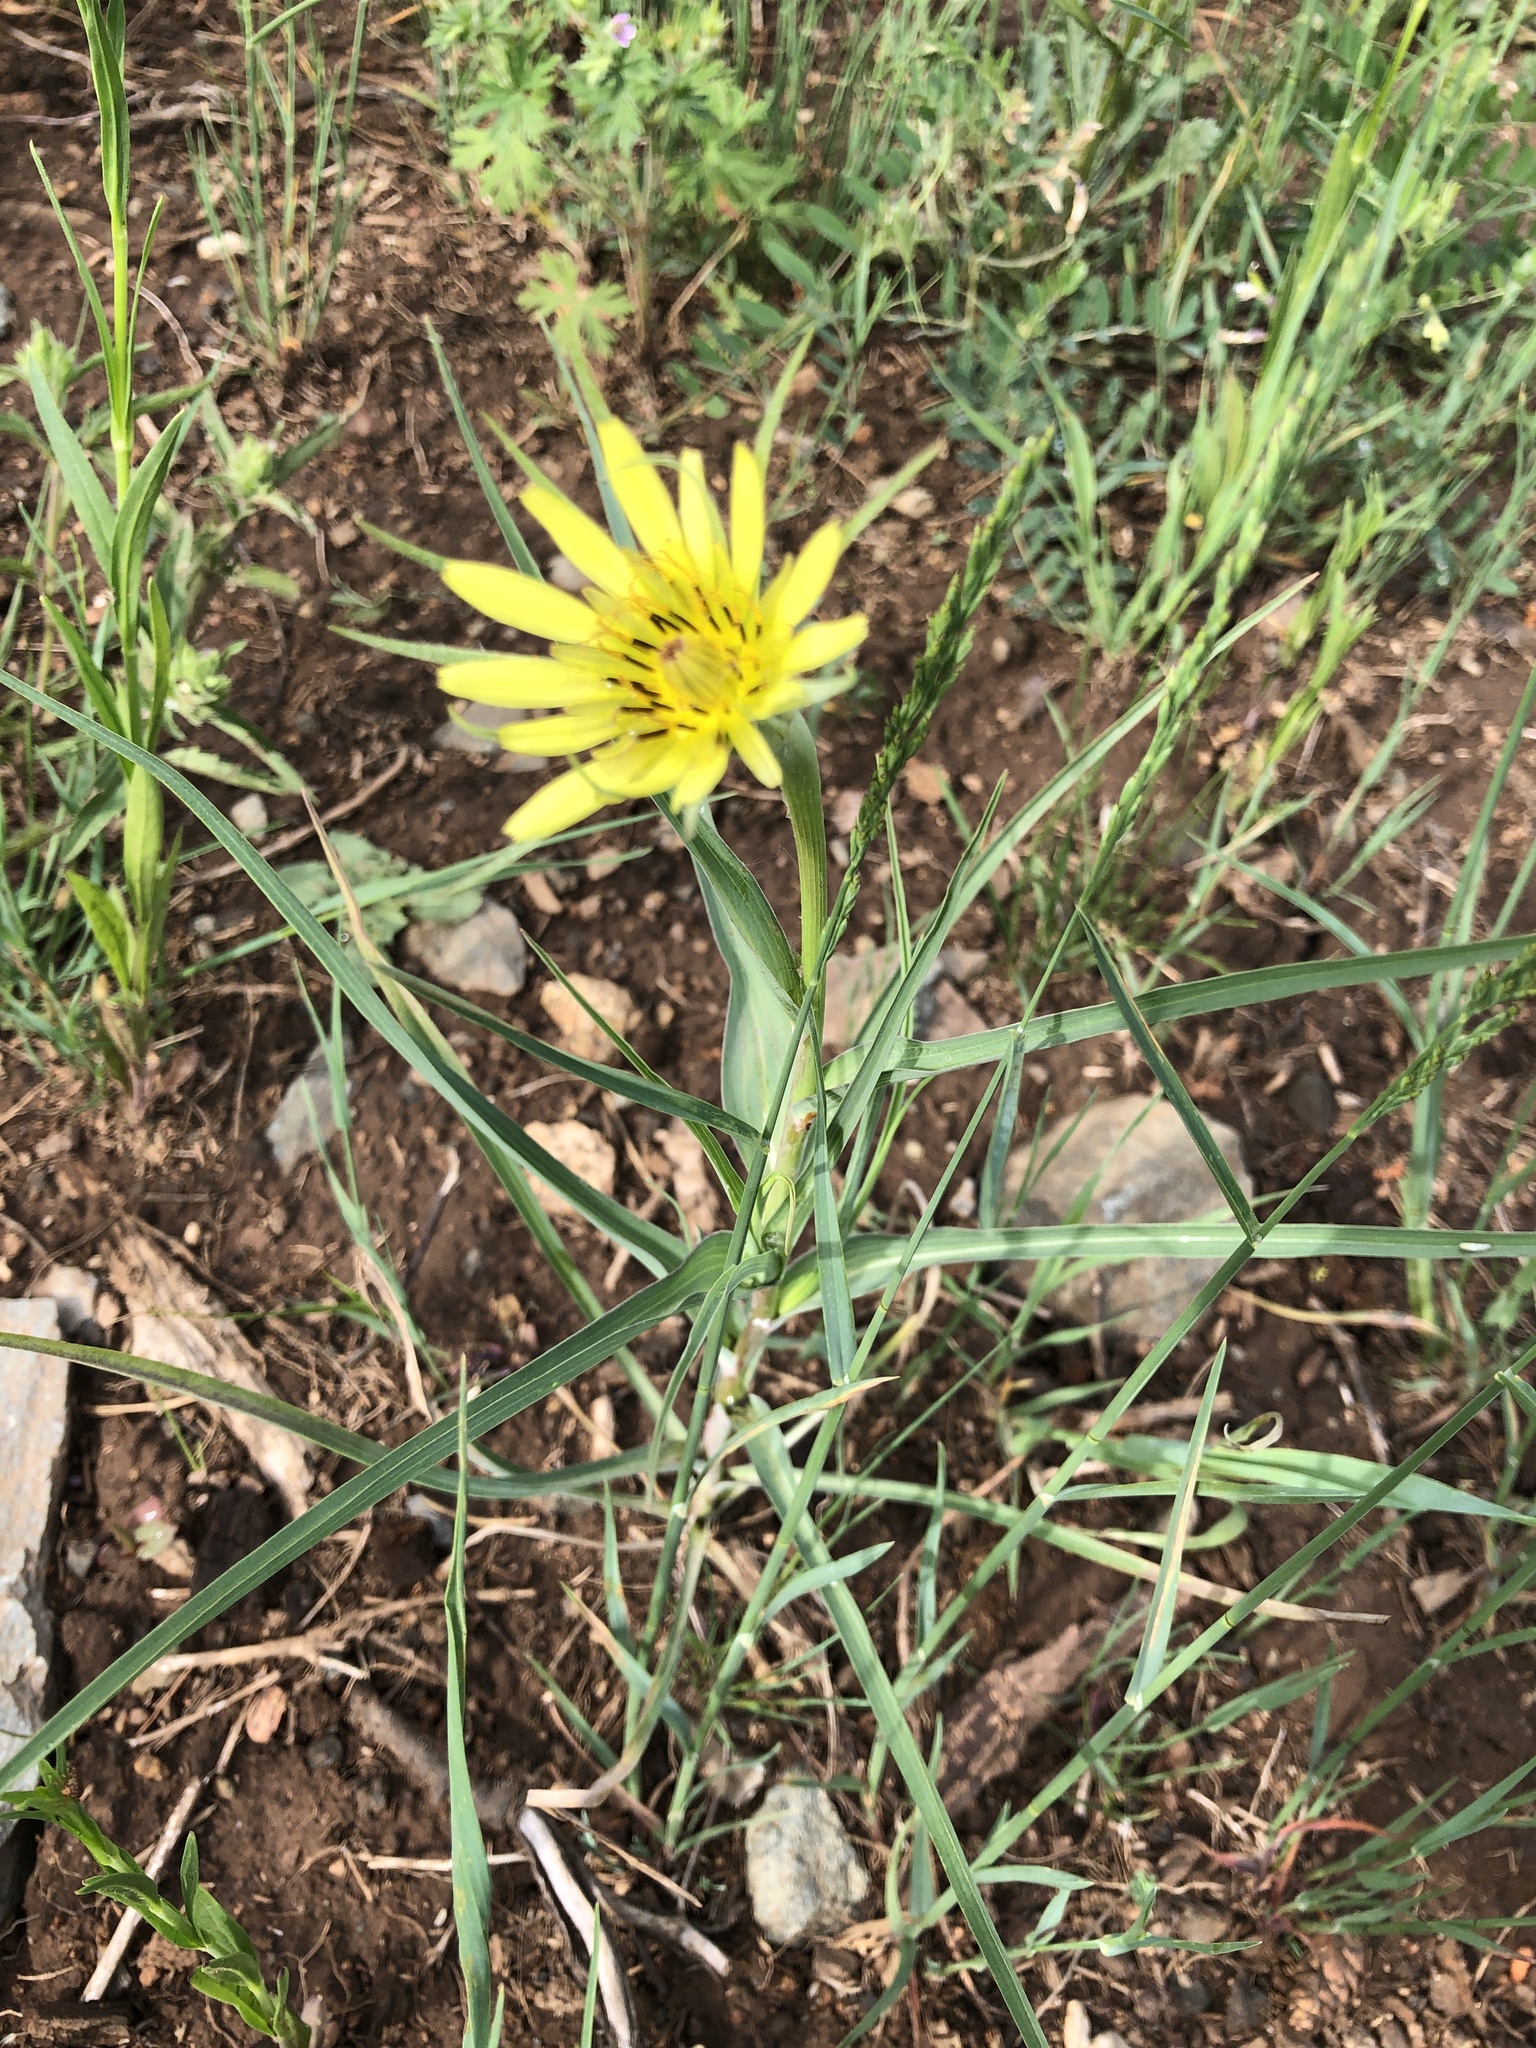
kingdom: Plantae
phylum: Tracheophyta
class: Magnoliopsida
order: Asterales
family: Asteraceae
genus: Tragopogon
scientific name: Tragopogon dubius
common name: Yellow salsify
